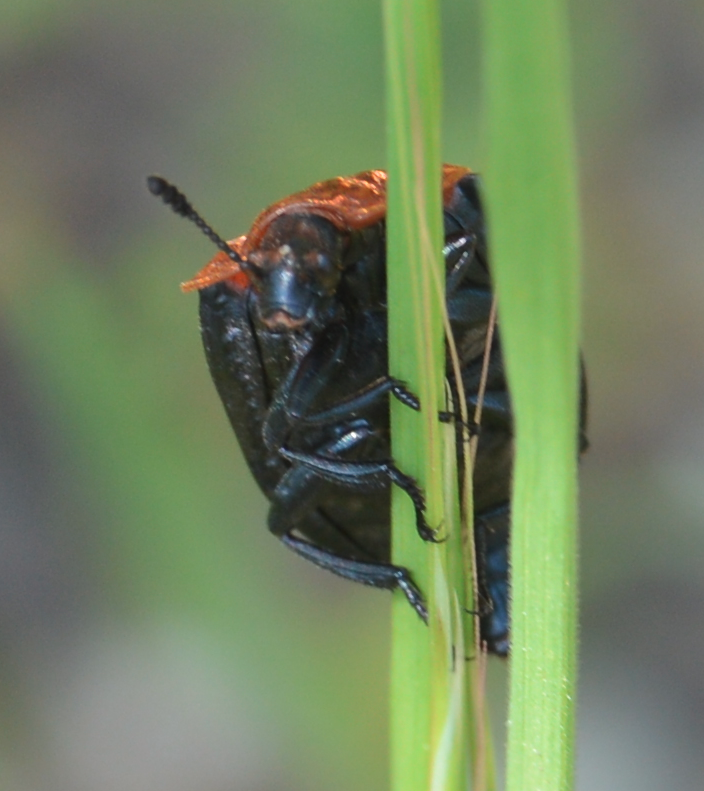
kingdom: Animalia
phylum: Arthropoda
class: Insecta
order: Coleoptera
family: Staphylinidae
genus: Oiceoptoma
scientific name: Oiceoptoma thoracicum
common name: Red-breasted carrion beetle
